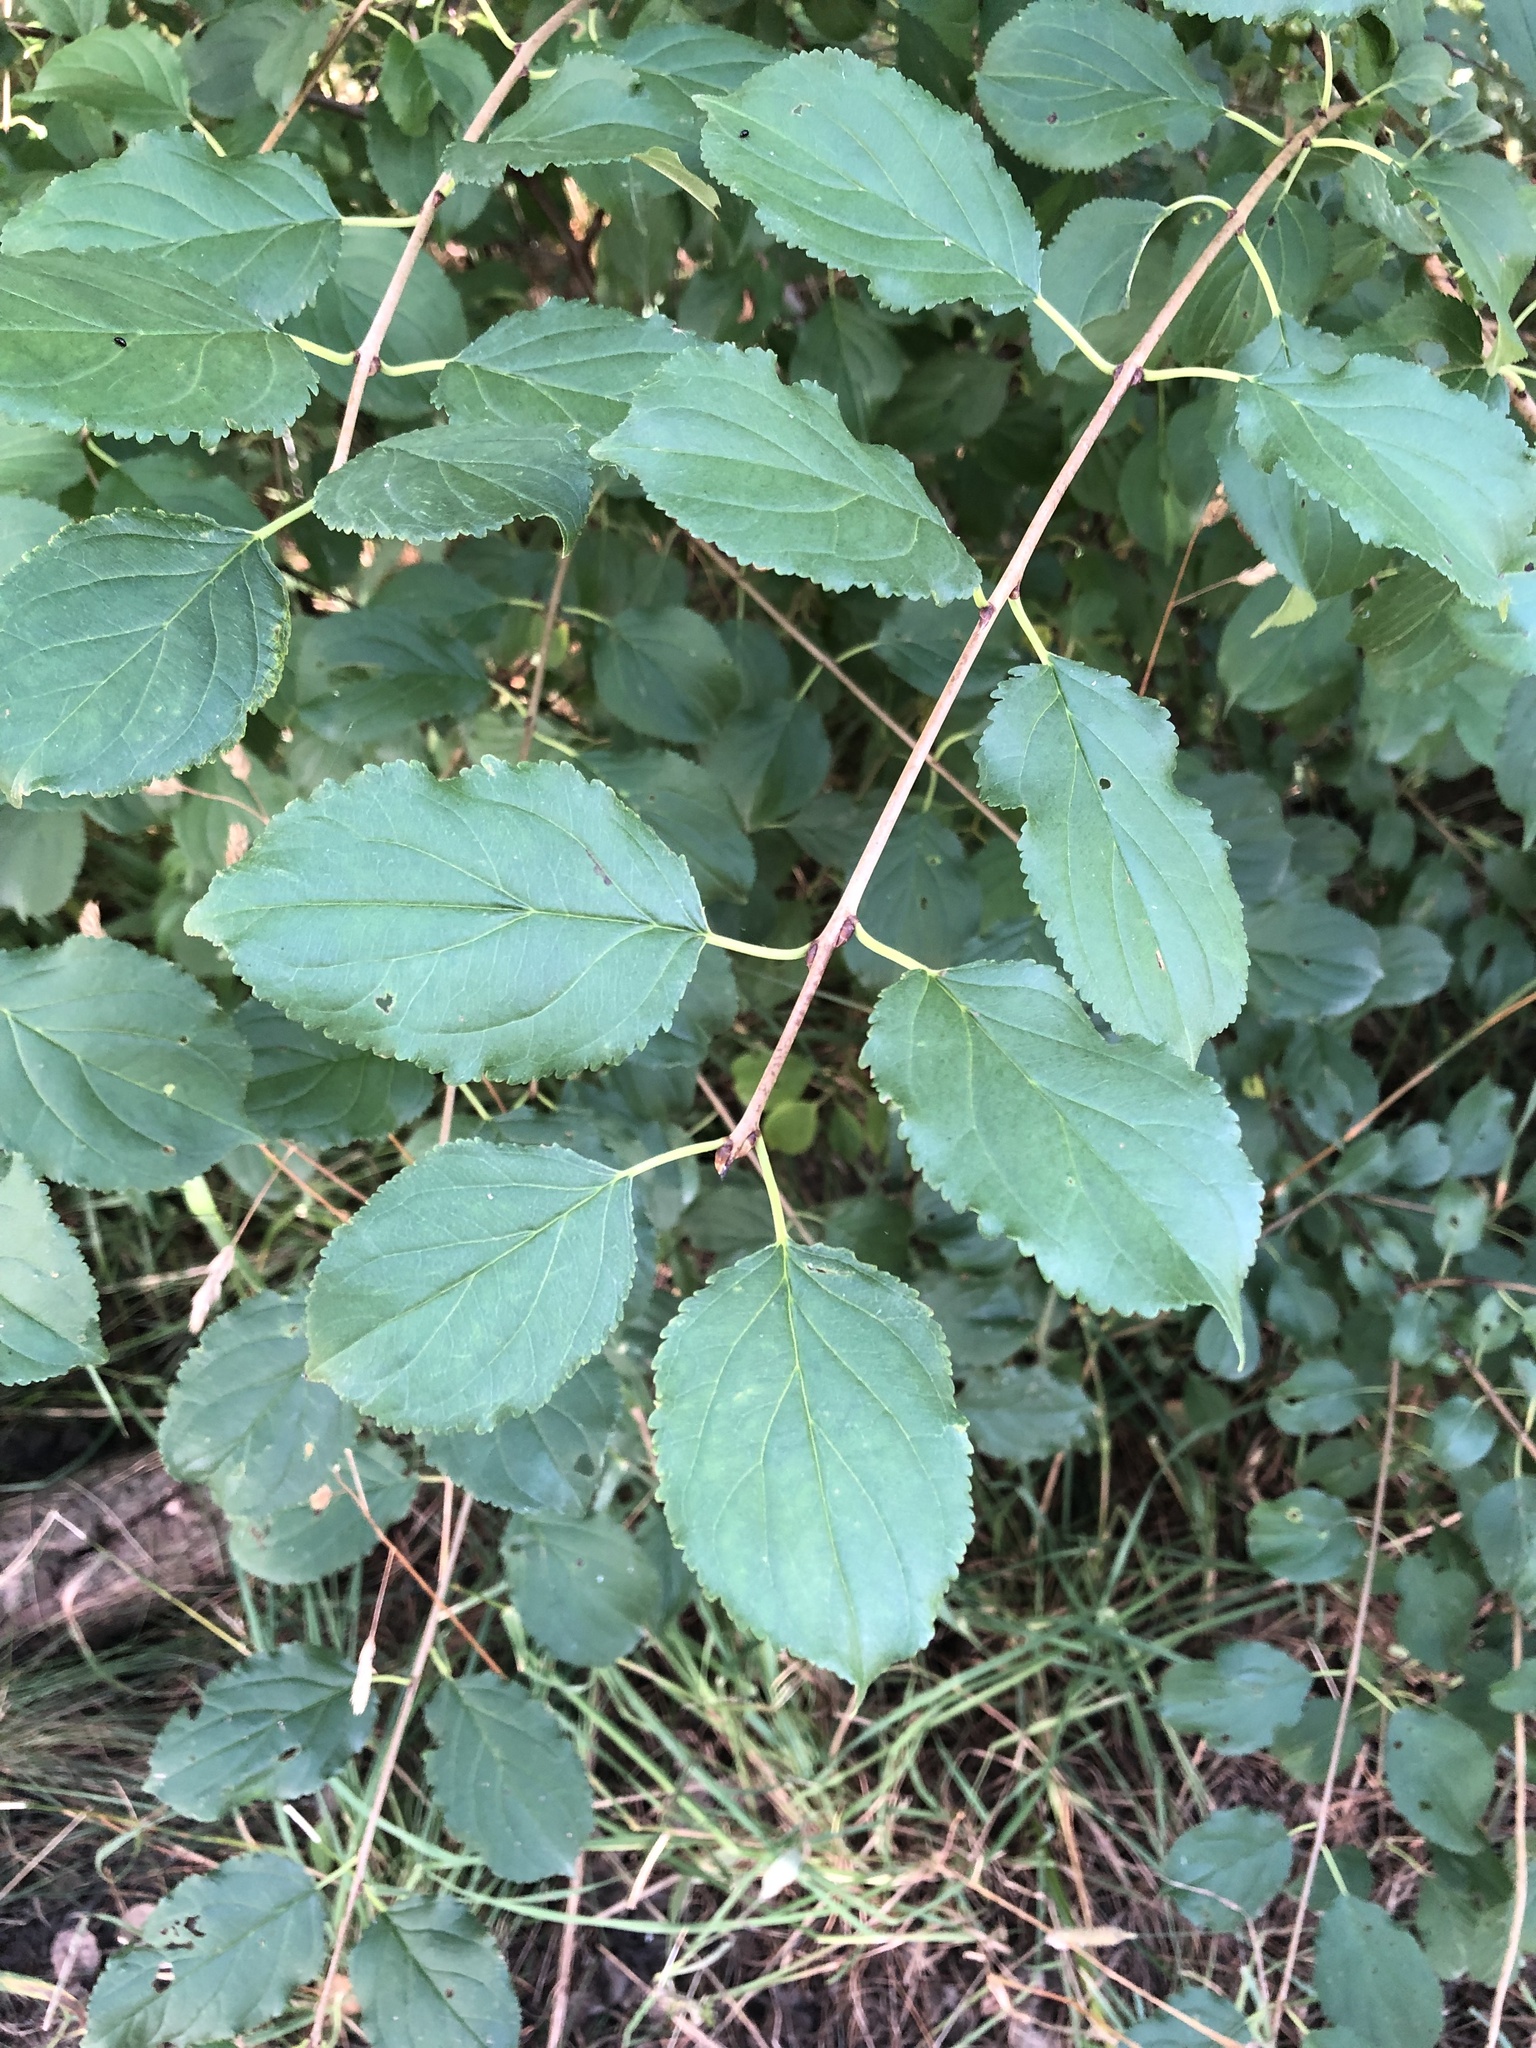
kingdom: Plantae
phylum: Tracheophyta
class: Magnoliopsida
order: Rosales
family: Rhamnaceae
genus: Rhamnus
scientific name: Rhamnus cathartica
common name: Common buckthorn
